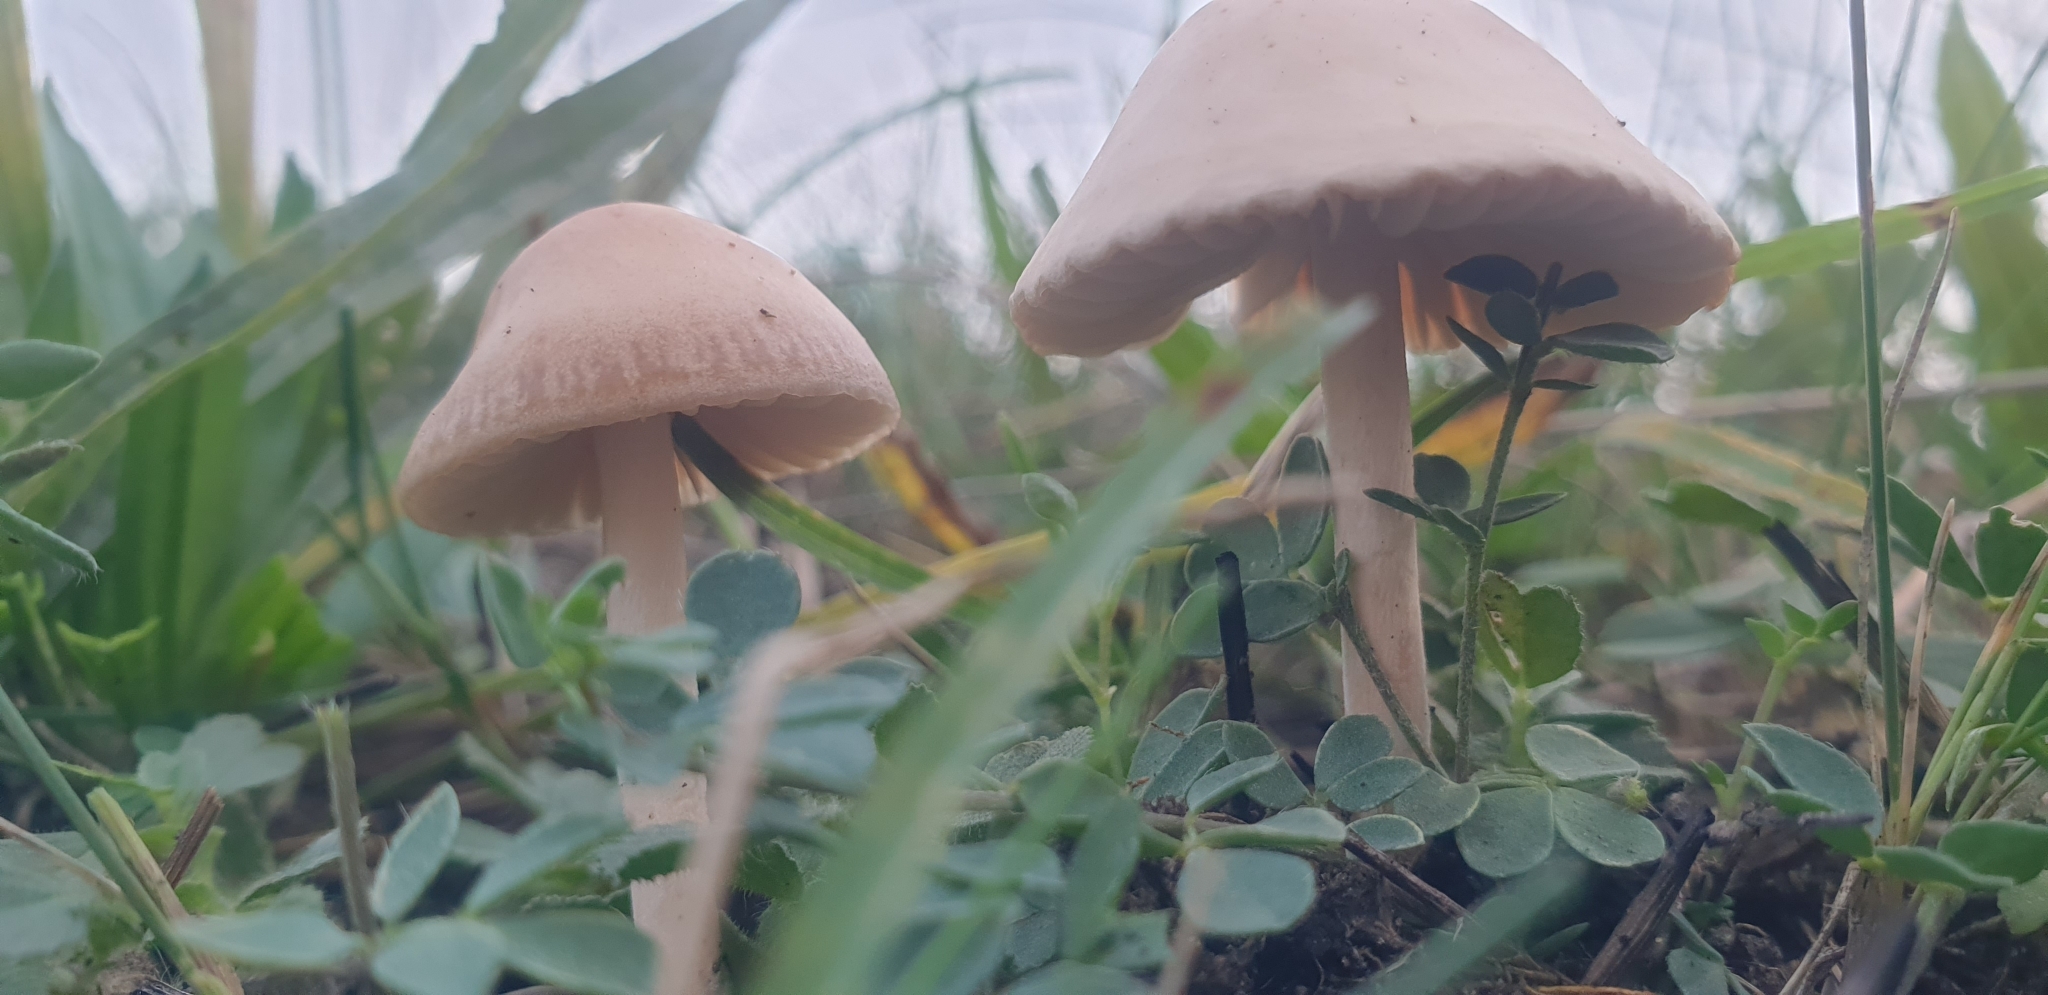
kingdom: Fungi
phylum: Basidiomycota
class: Agaricomycetes
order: Agaricales
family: Marasmiaceae
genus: Marasmius
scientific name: Marasmius oreades
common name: Fairy ring champignon
